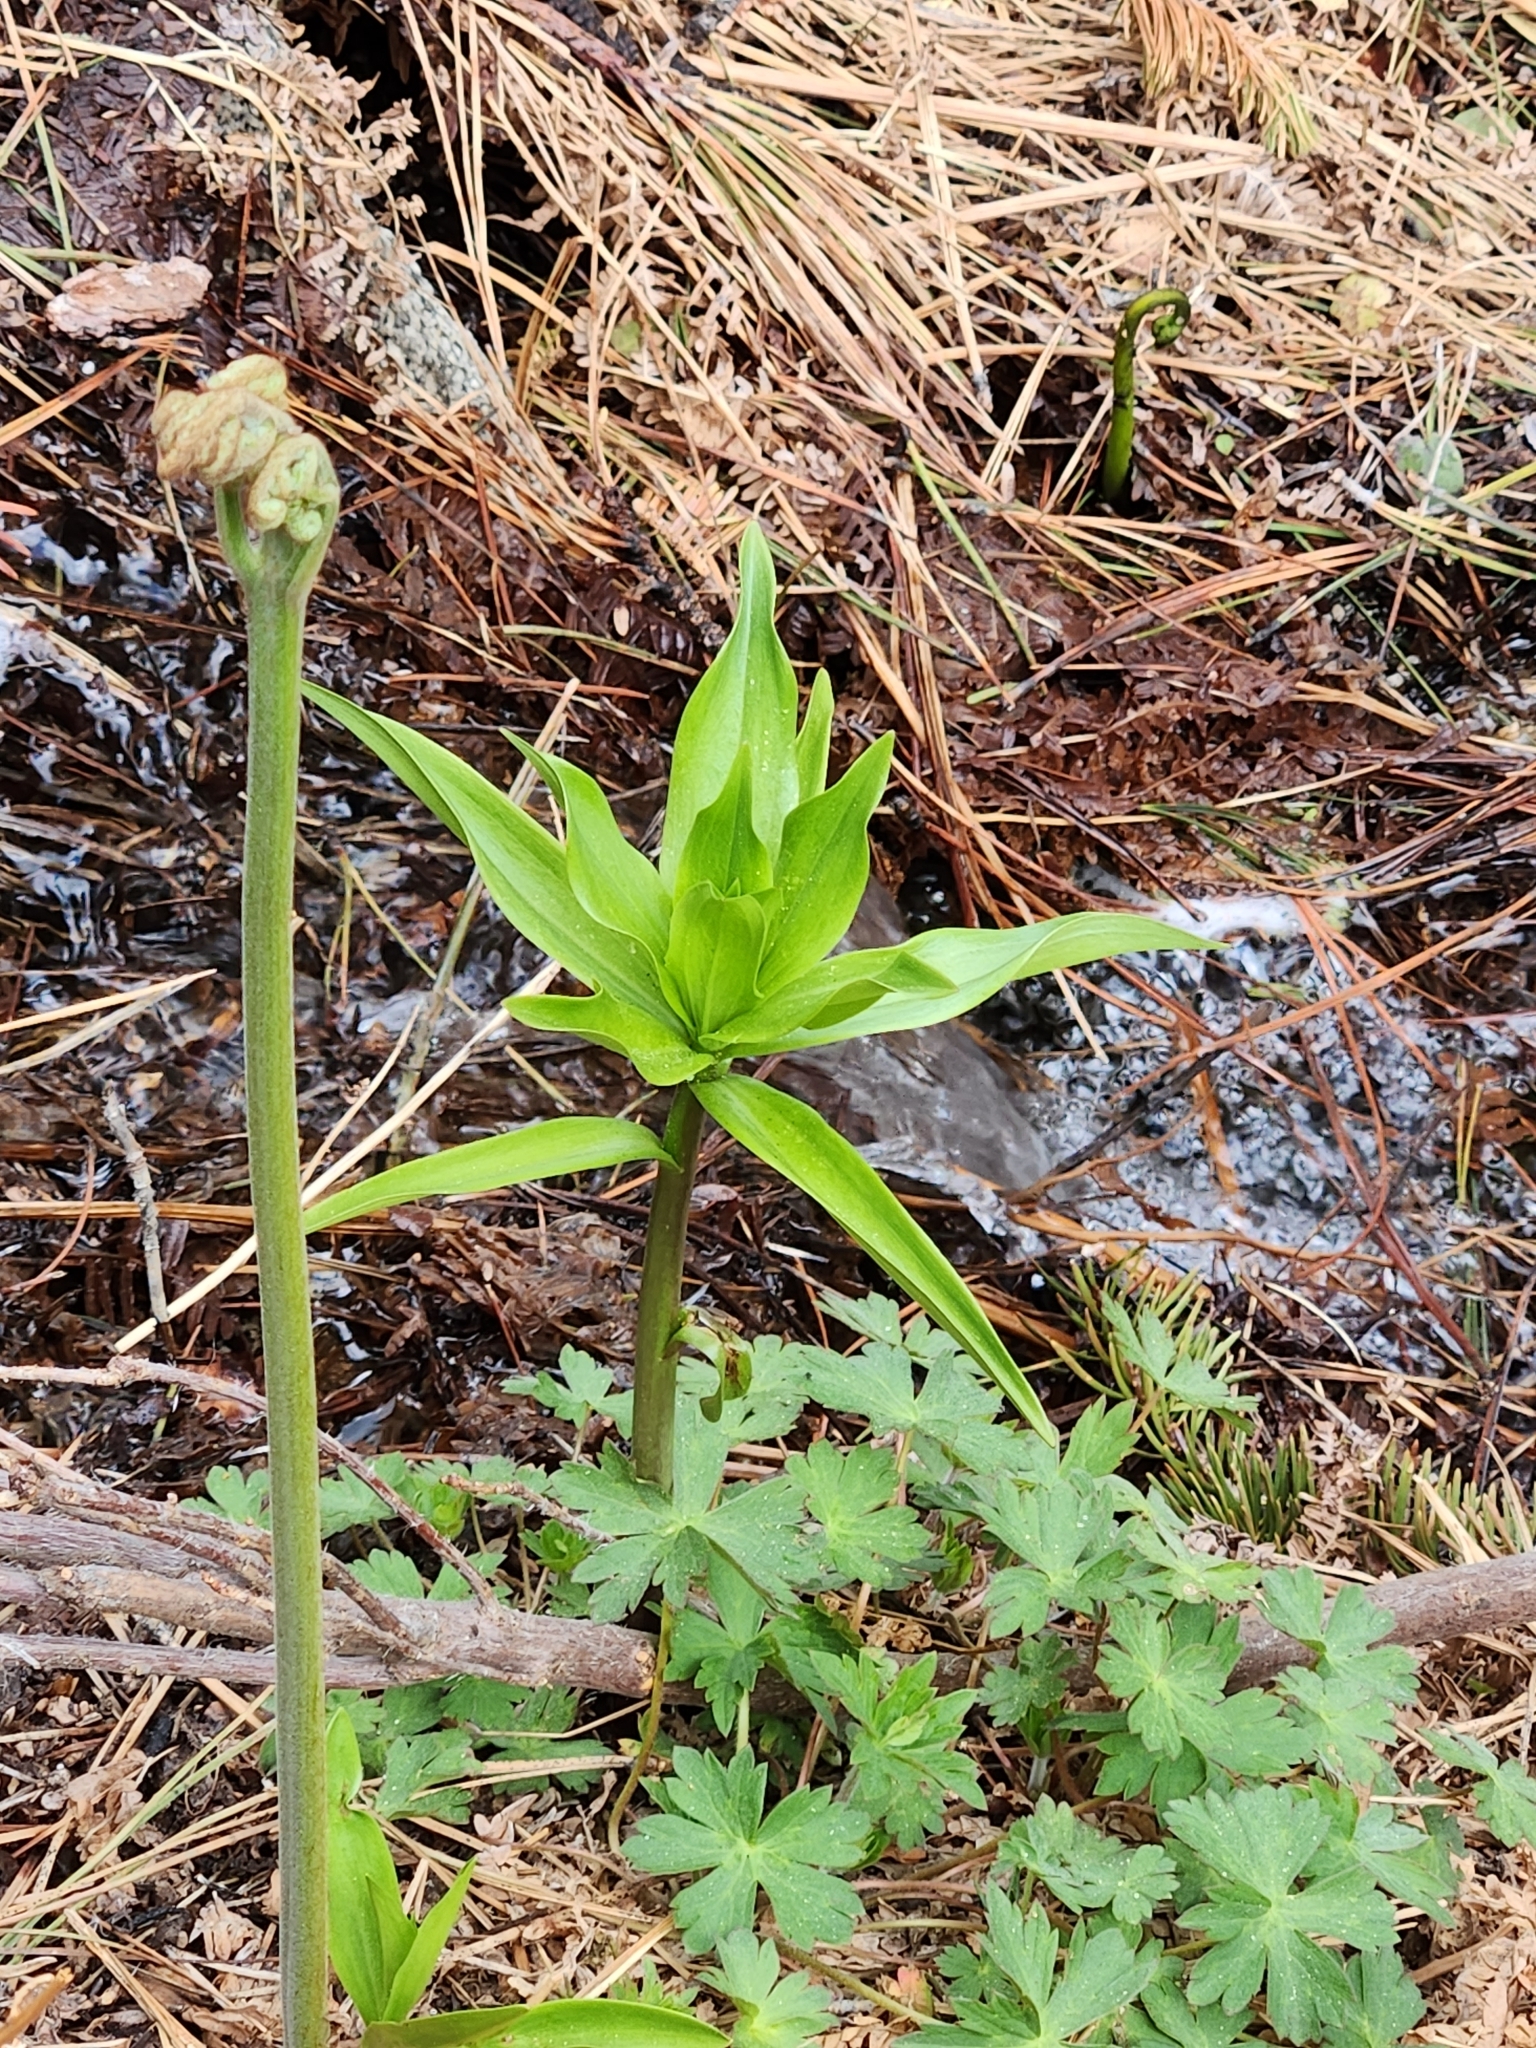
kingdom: Plantae
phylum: Tracheophyta
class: Liliopsida
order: Liliales
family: Liliaceae
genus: Lilium
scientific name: Lilium parryi
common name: Lemon lily
